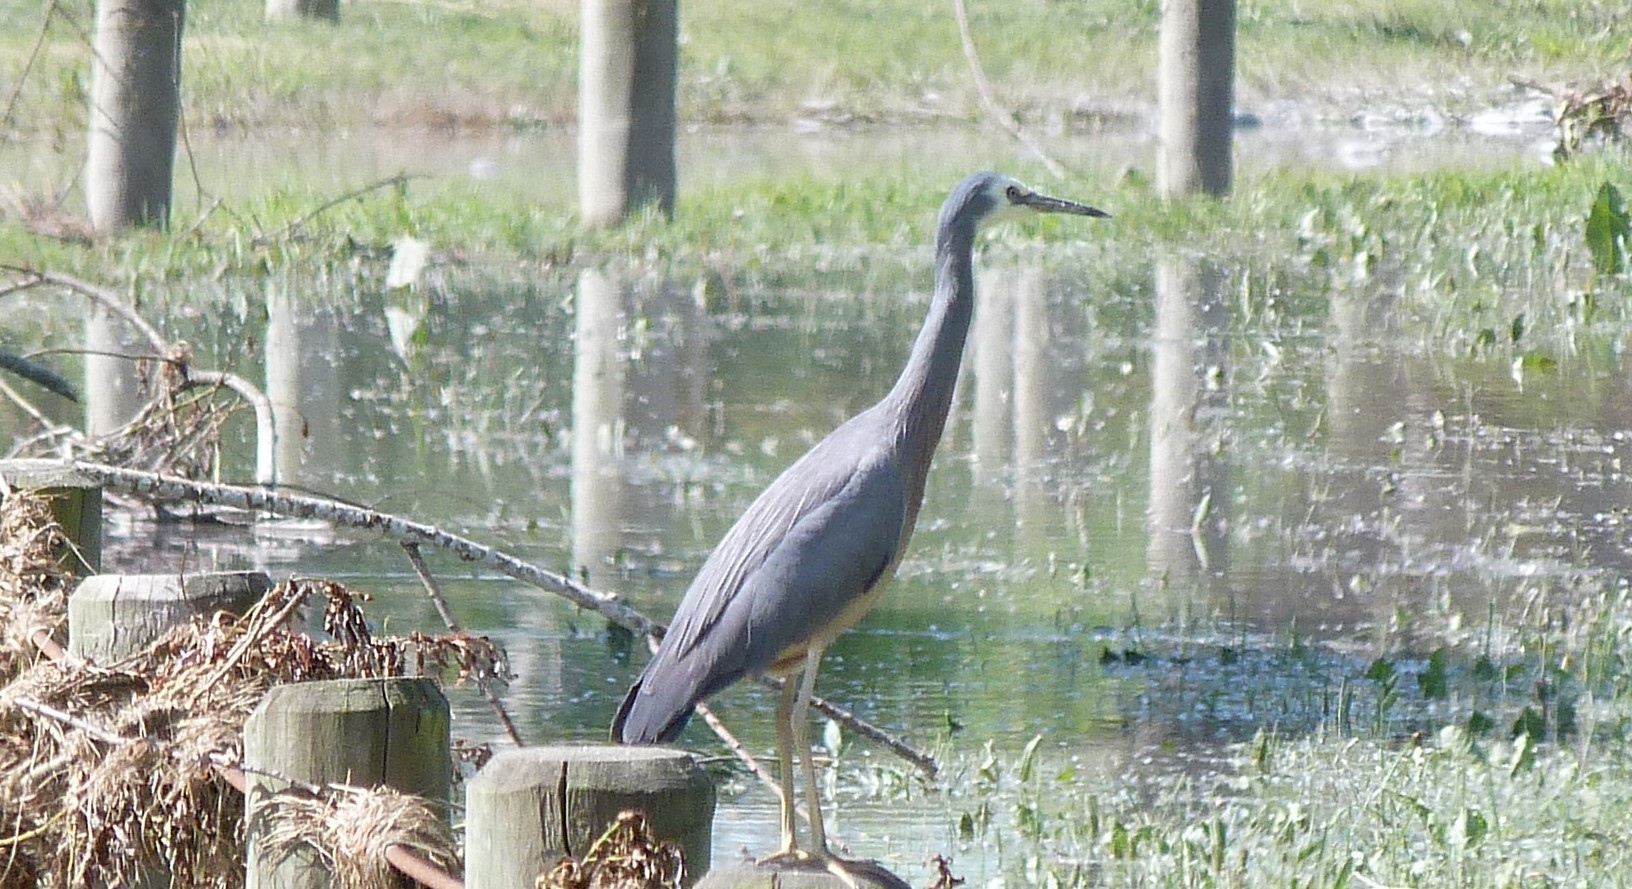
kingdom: Animalia
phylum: Chordata
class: Aves
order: Pelecaniformes
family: Ardeidae
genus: Egretta
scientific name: Egretta novaehollandiae
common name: White-faced heron
